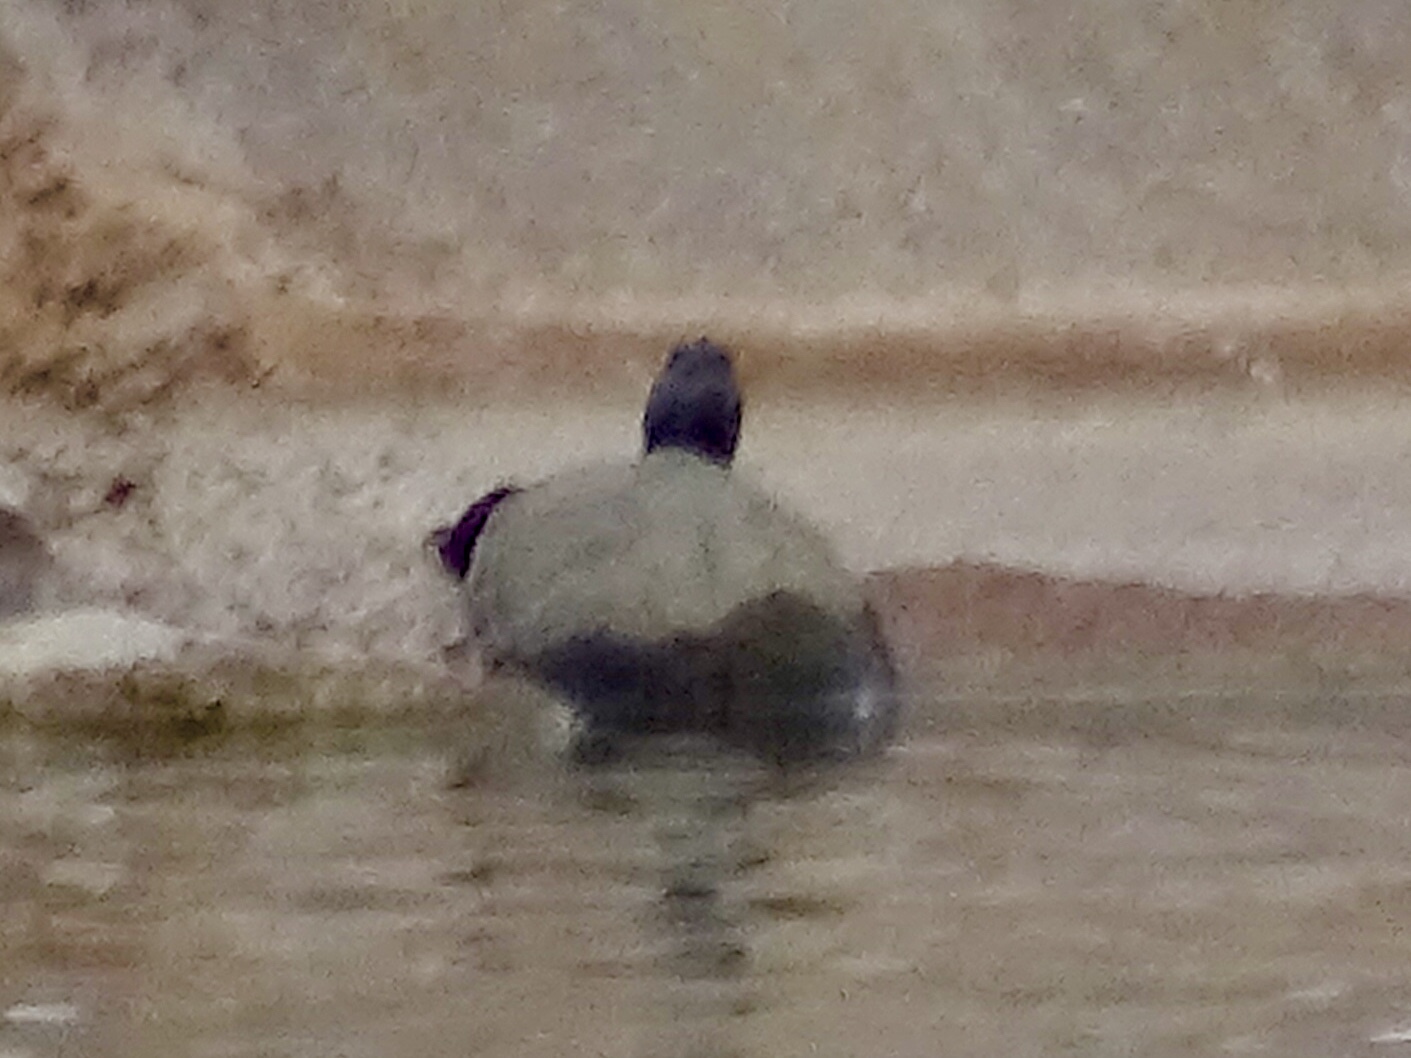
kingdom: Animalia
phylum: Chordata
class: Testudines
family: Emydidae
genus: Trachemys
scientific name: Trachemys scripta
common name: Slider
